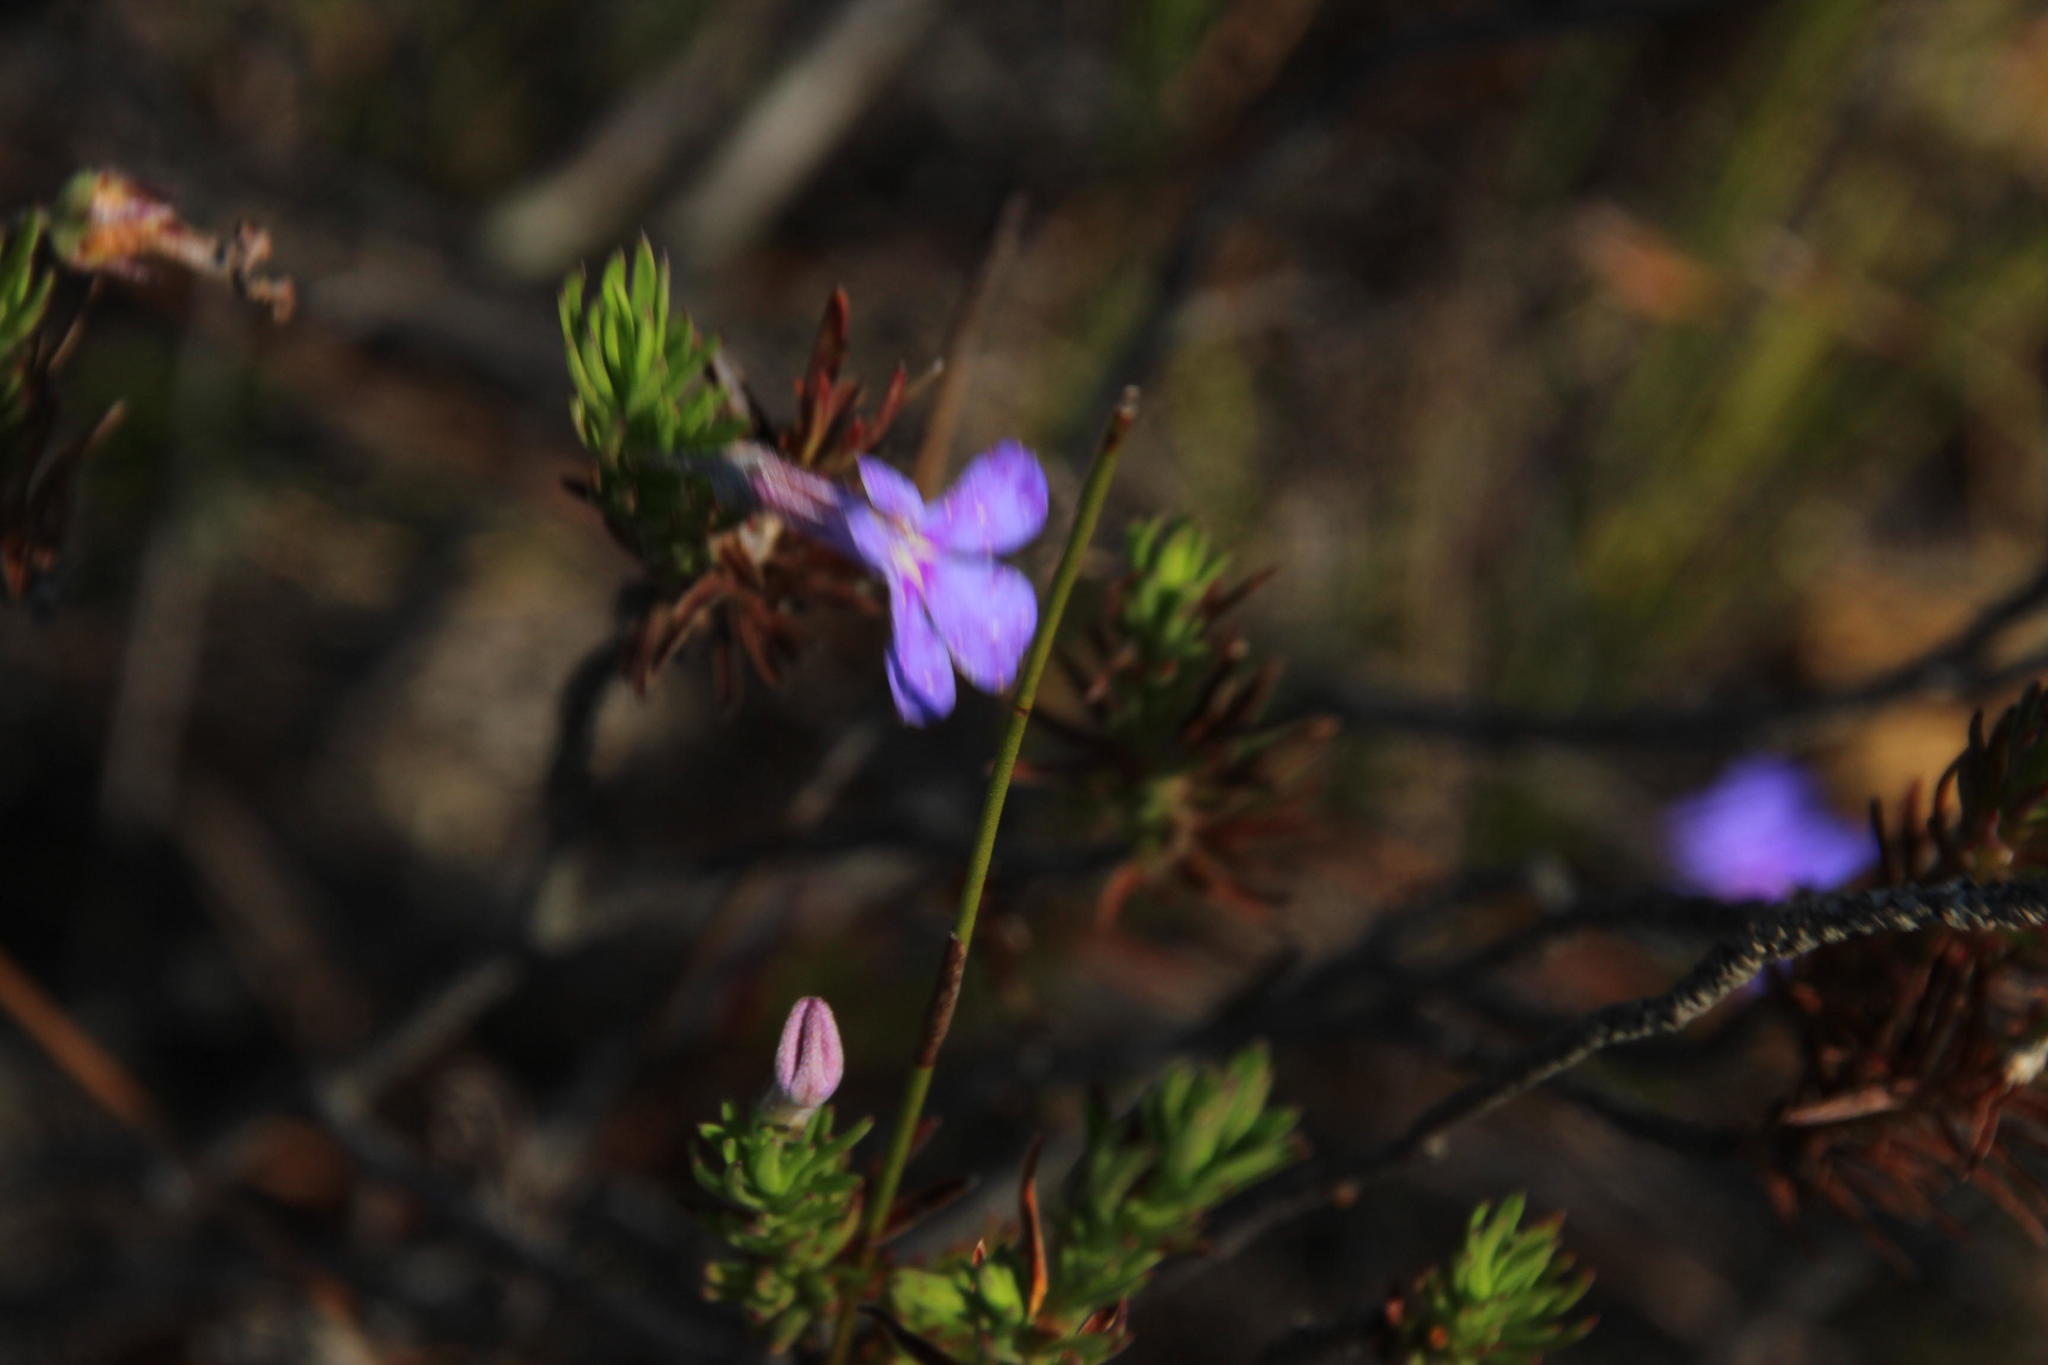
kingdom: Plantae
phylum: Tracheophyta
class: Magnoliopsida
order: Asterales
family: Campanulaceae
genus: Lobelia
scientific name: Lobelia pinifolia
